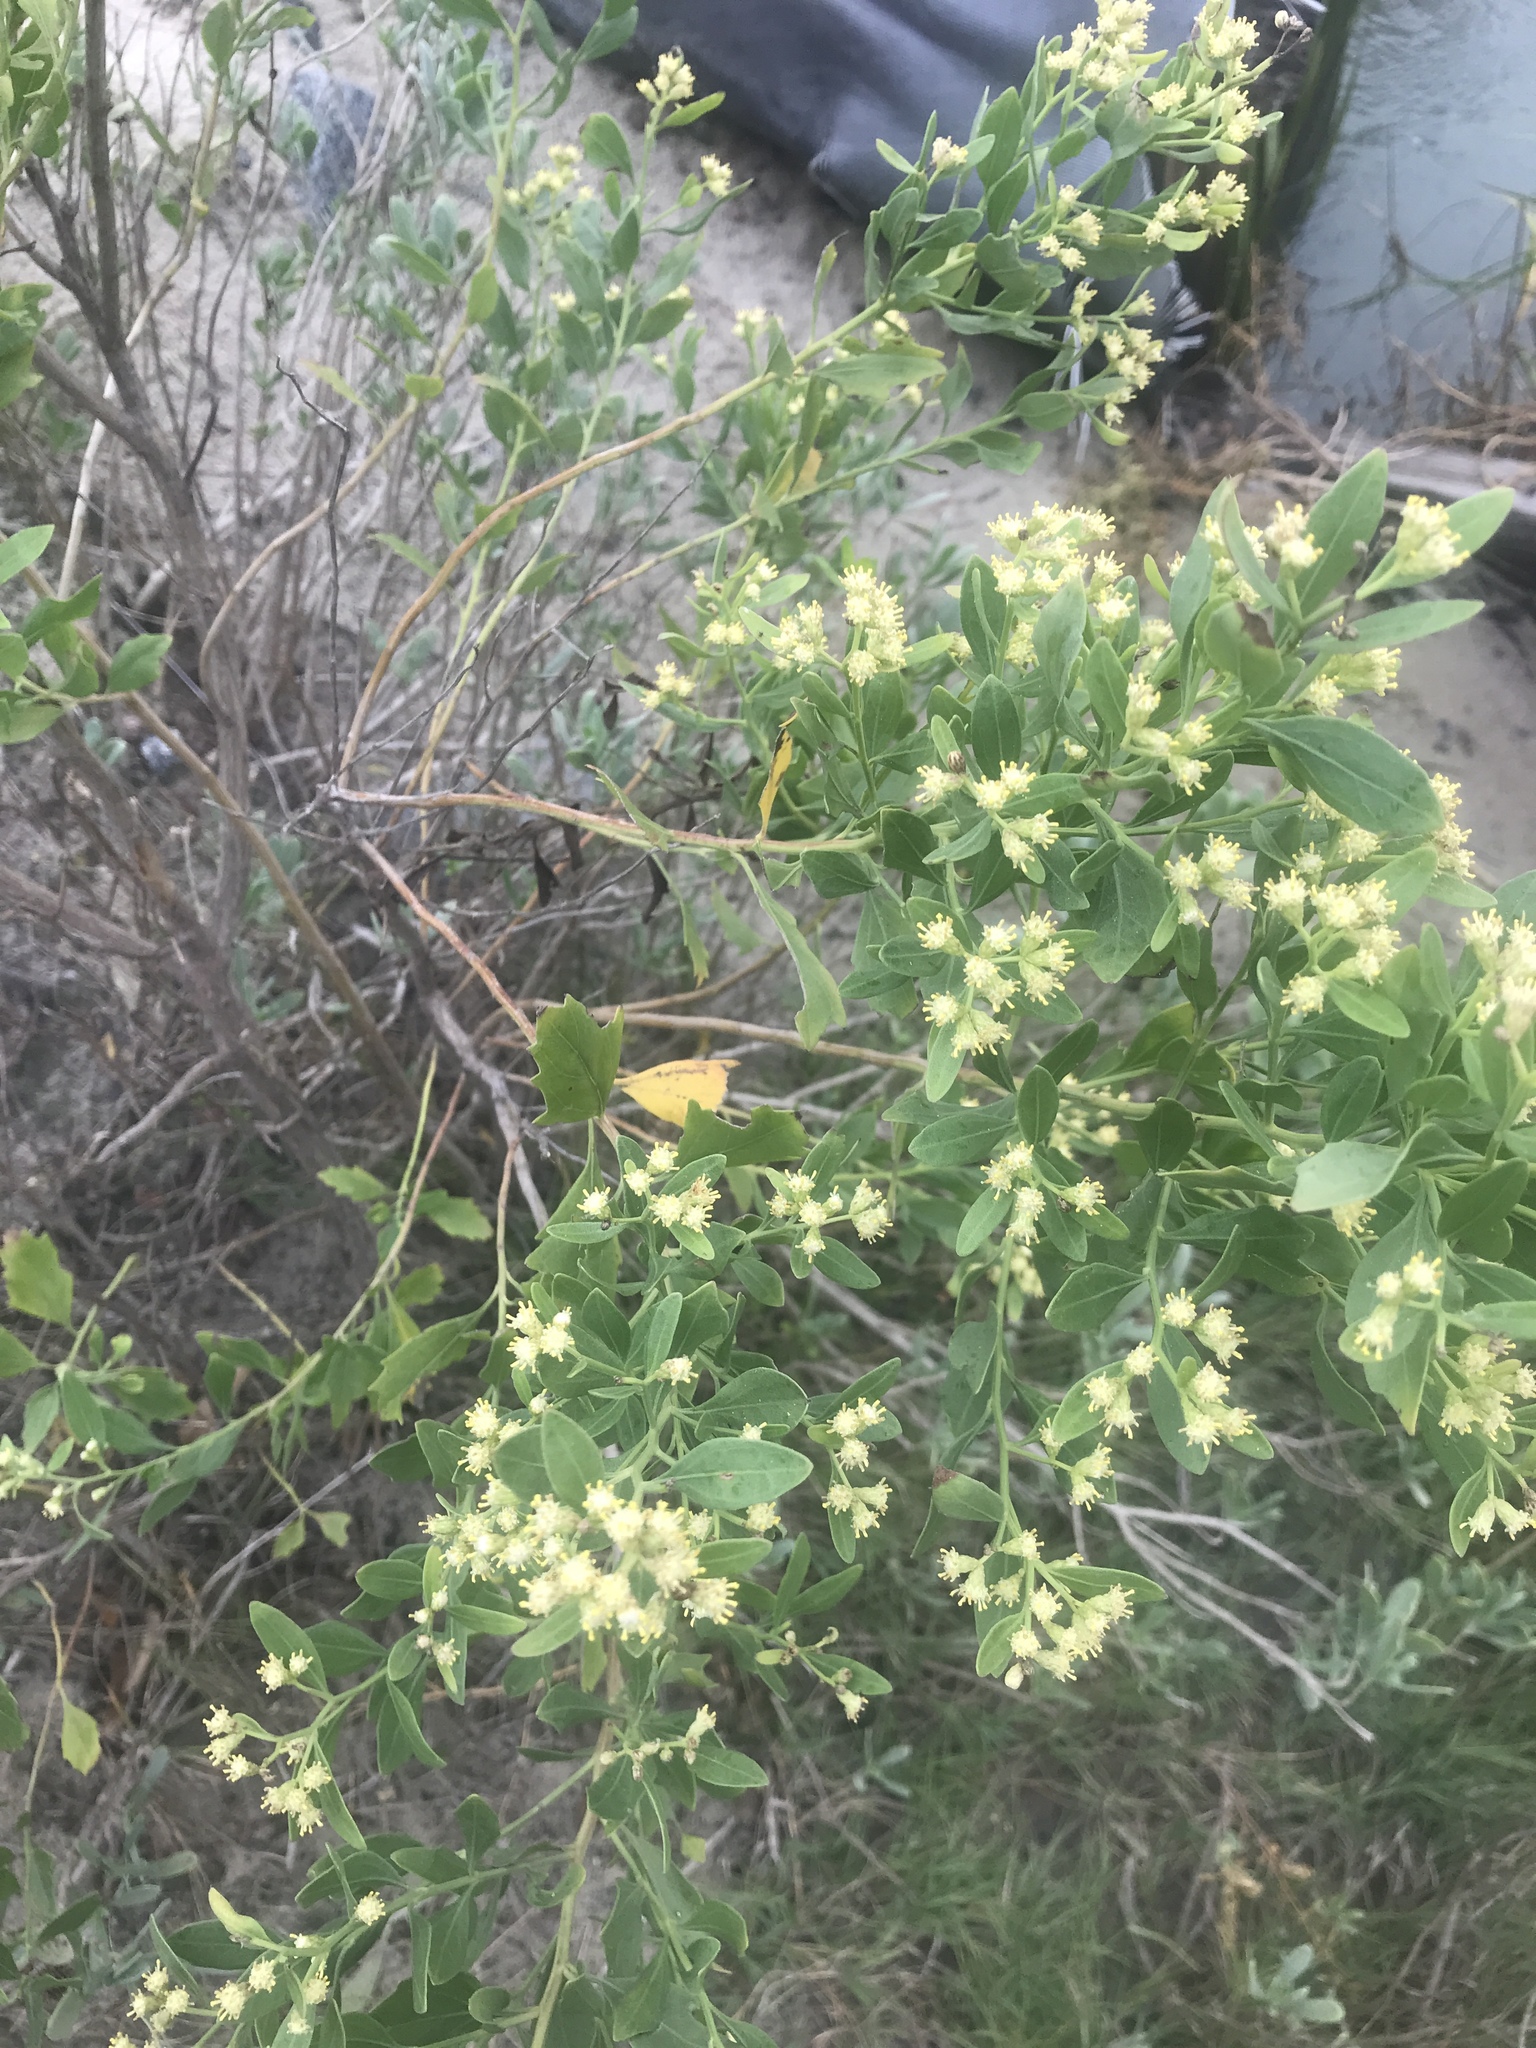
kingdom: Plantae
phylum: Tracheophyta
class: Magnoliopsida
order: Asterales
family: Asteraceae
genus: Baccharis
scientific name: Baccharis halimifolia
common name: Eastern baccharis
